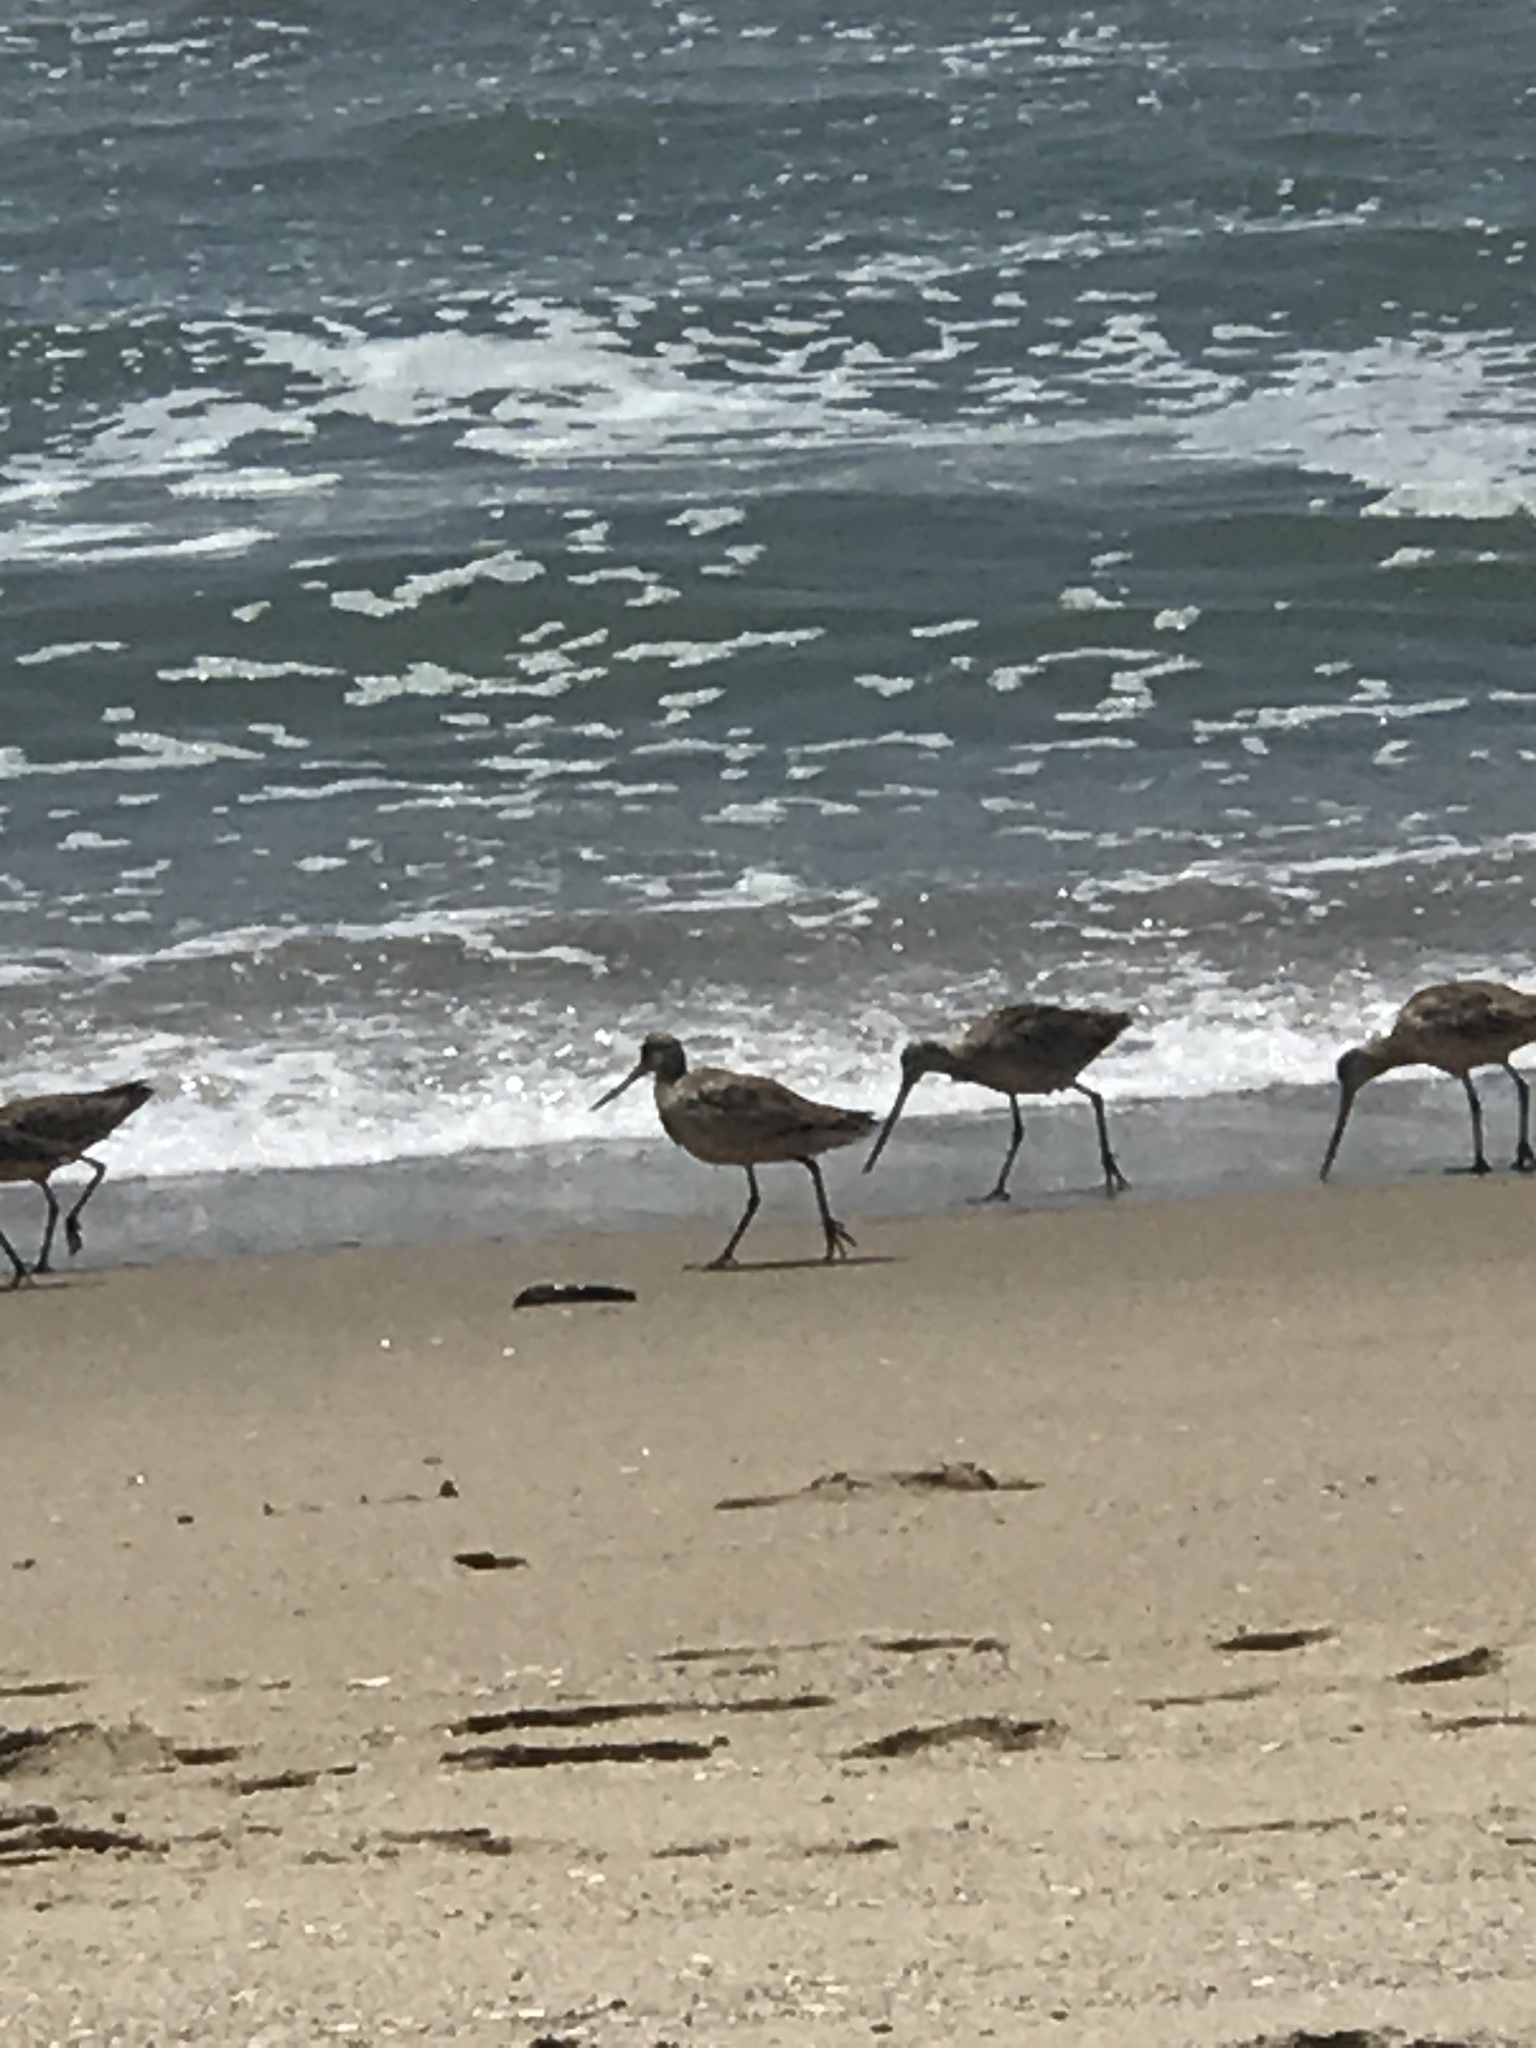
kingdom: Animalia
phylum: Chordata
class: Aves
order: Charadriiformes
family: Scolopacidae
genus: Limosa
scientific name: Limosa fedoa
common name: Marbled godwit
